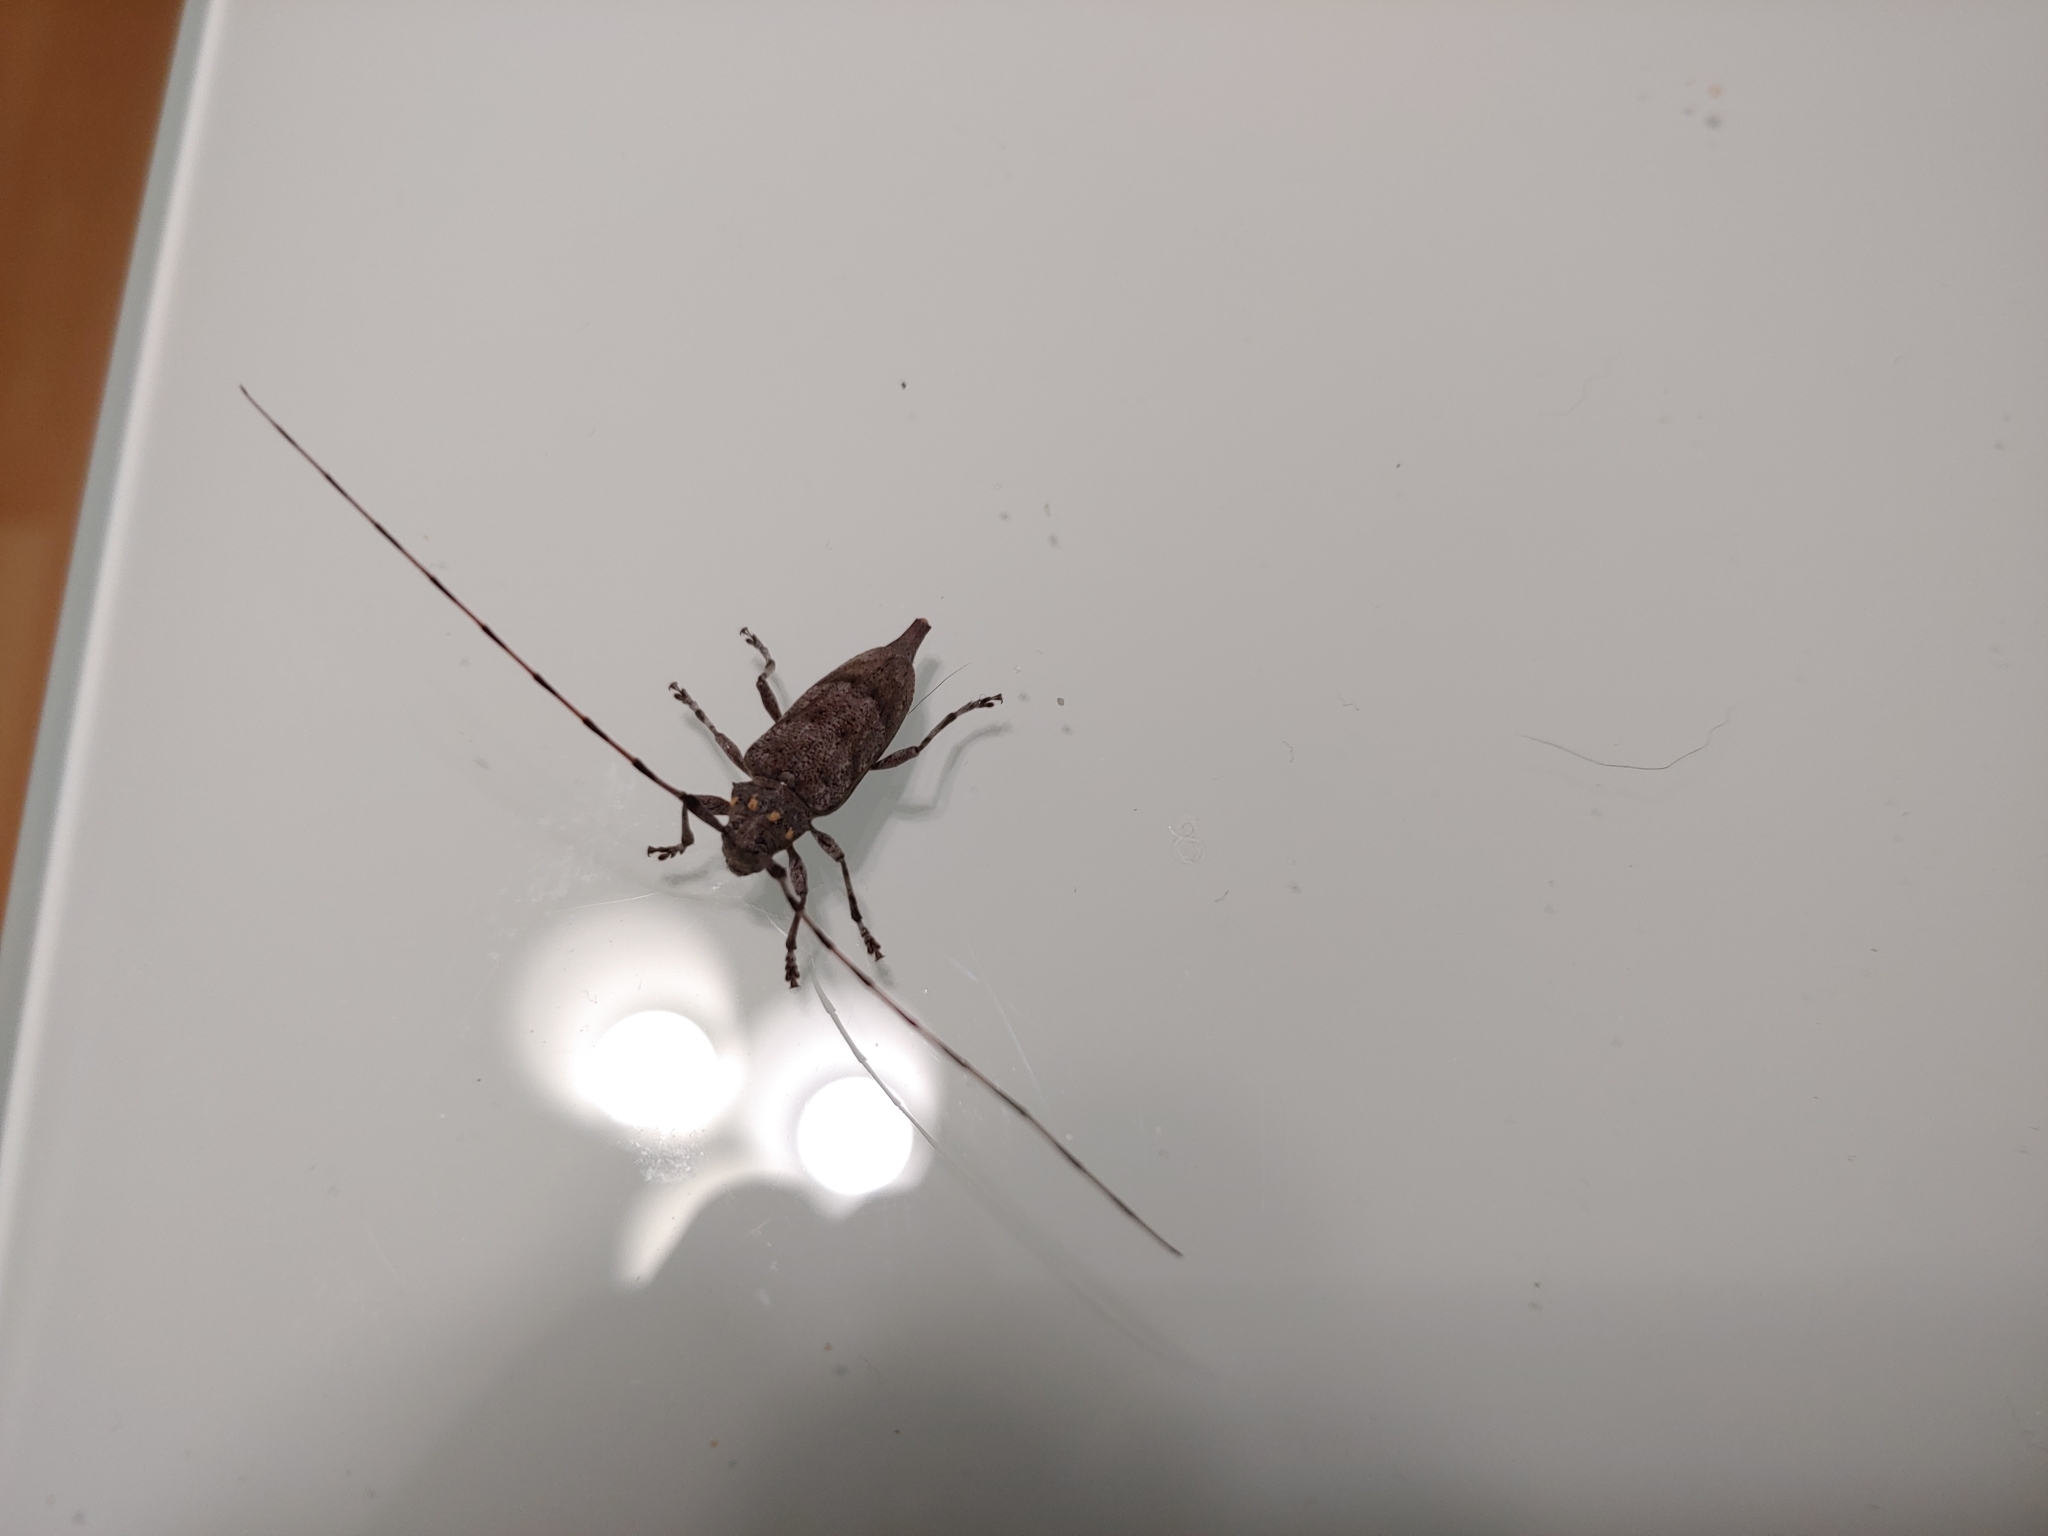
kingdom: Animalia
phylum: Arthropoda
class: Insecta
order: Coleoptera
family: Cerambycidae
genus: Acanthocinus
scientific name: Acanthocinus aedilis
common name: Timberman beetle
